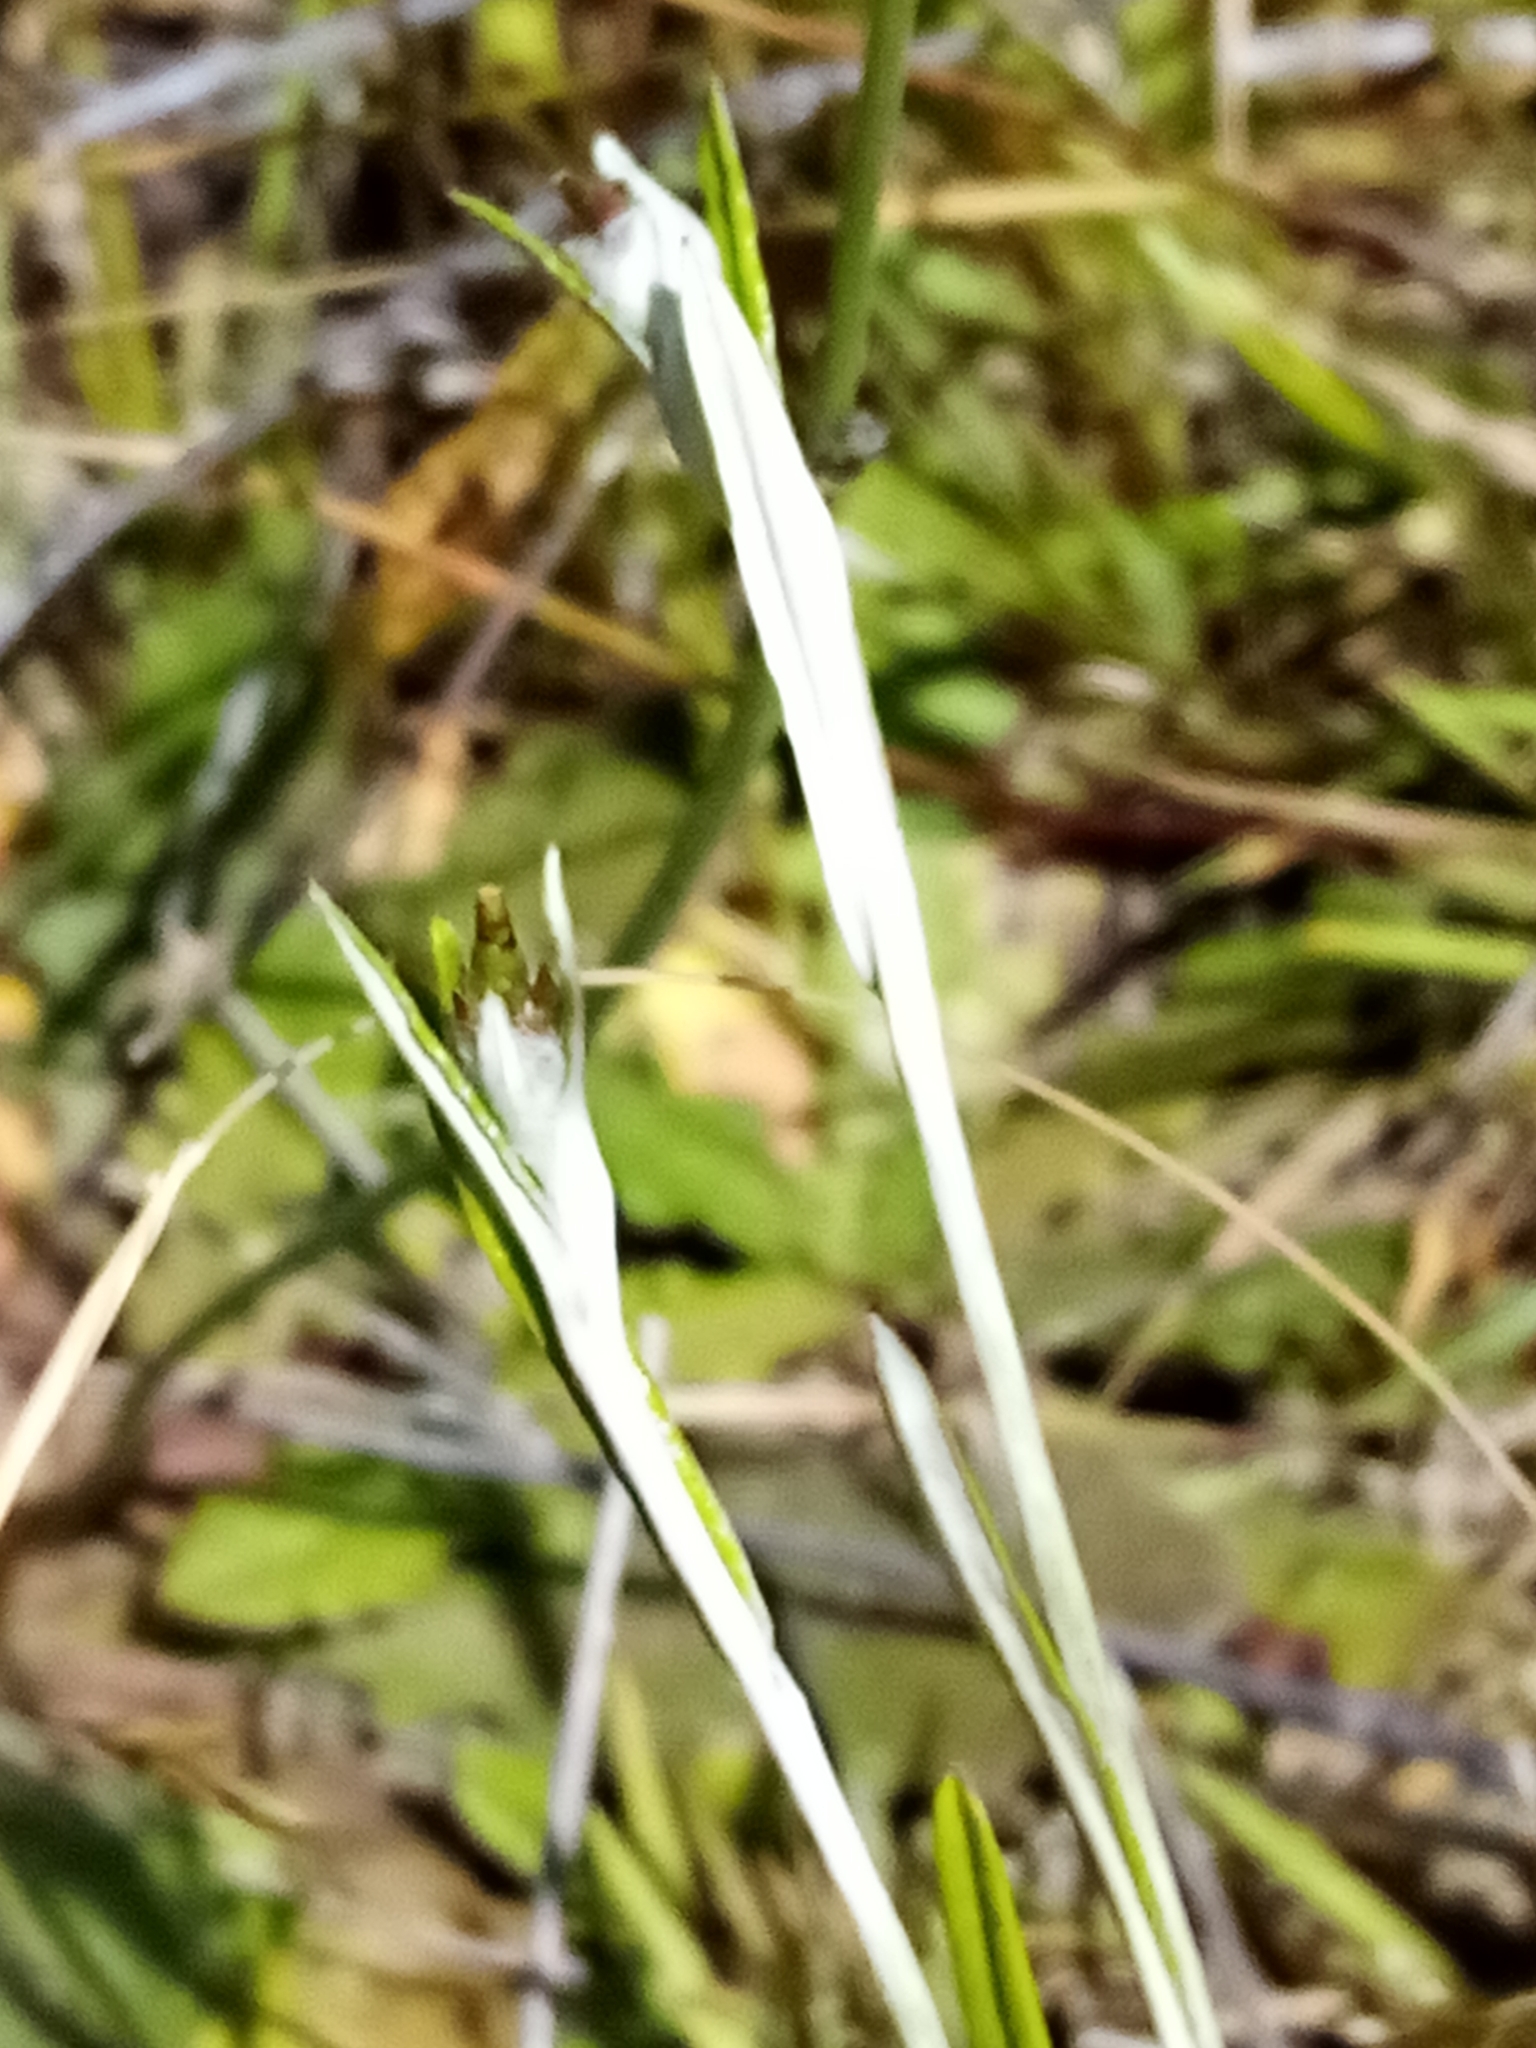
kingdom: Plantae
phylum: Tracheophyta
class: Magnoliopsida
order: Asterales
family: Asteraceae
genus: Euchiton
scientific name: Euchiton japonicus
